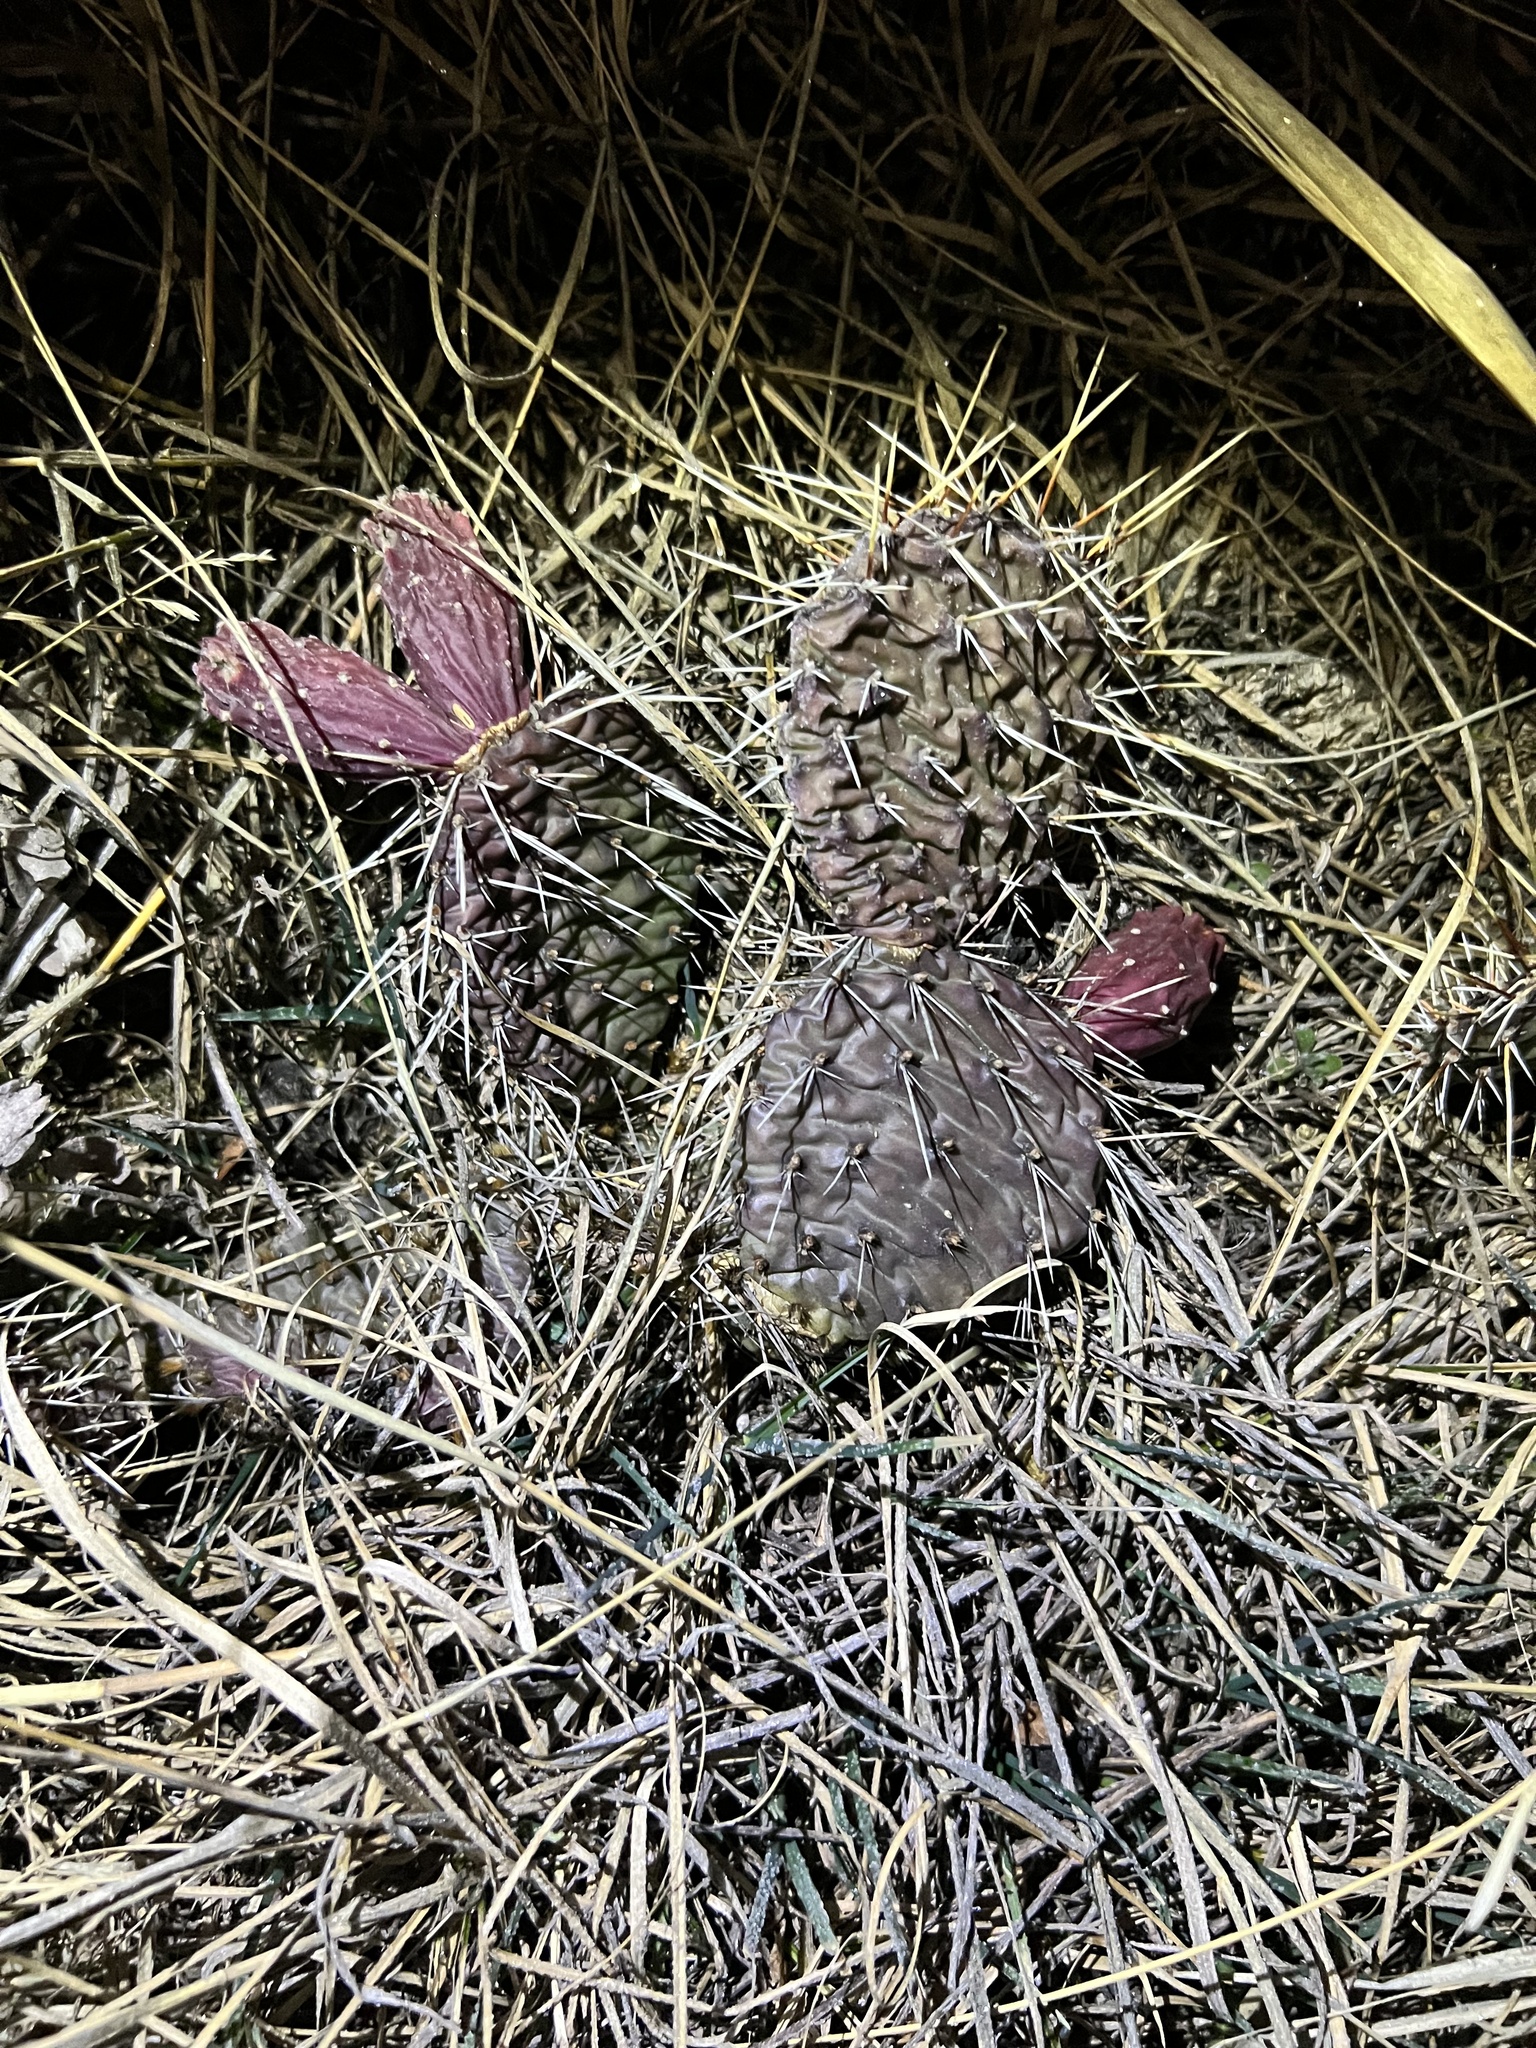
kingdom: Plantae
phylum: Tracheophyta
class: Magnoliopsida
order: Caryophyllales
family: Cactaceae
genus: Opuntia
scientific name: Opuntia macrorhiza
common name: Grassland pricklypear
